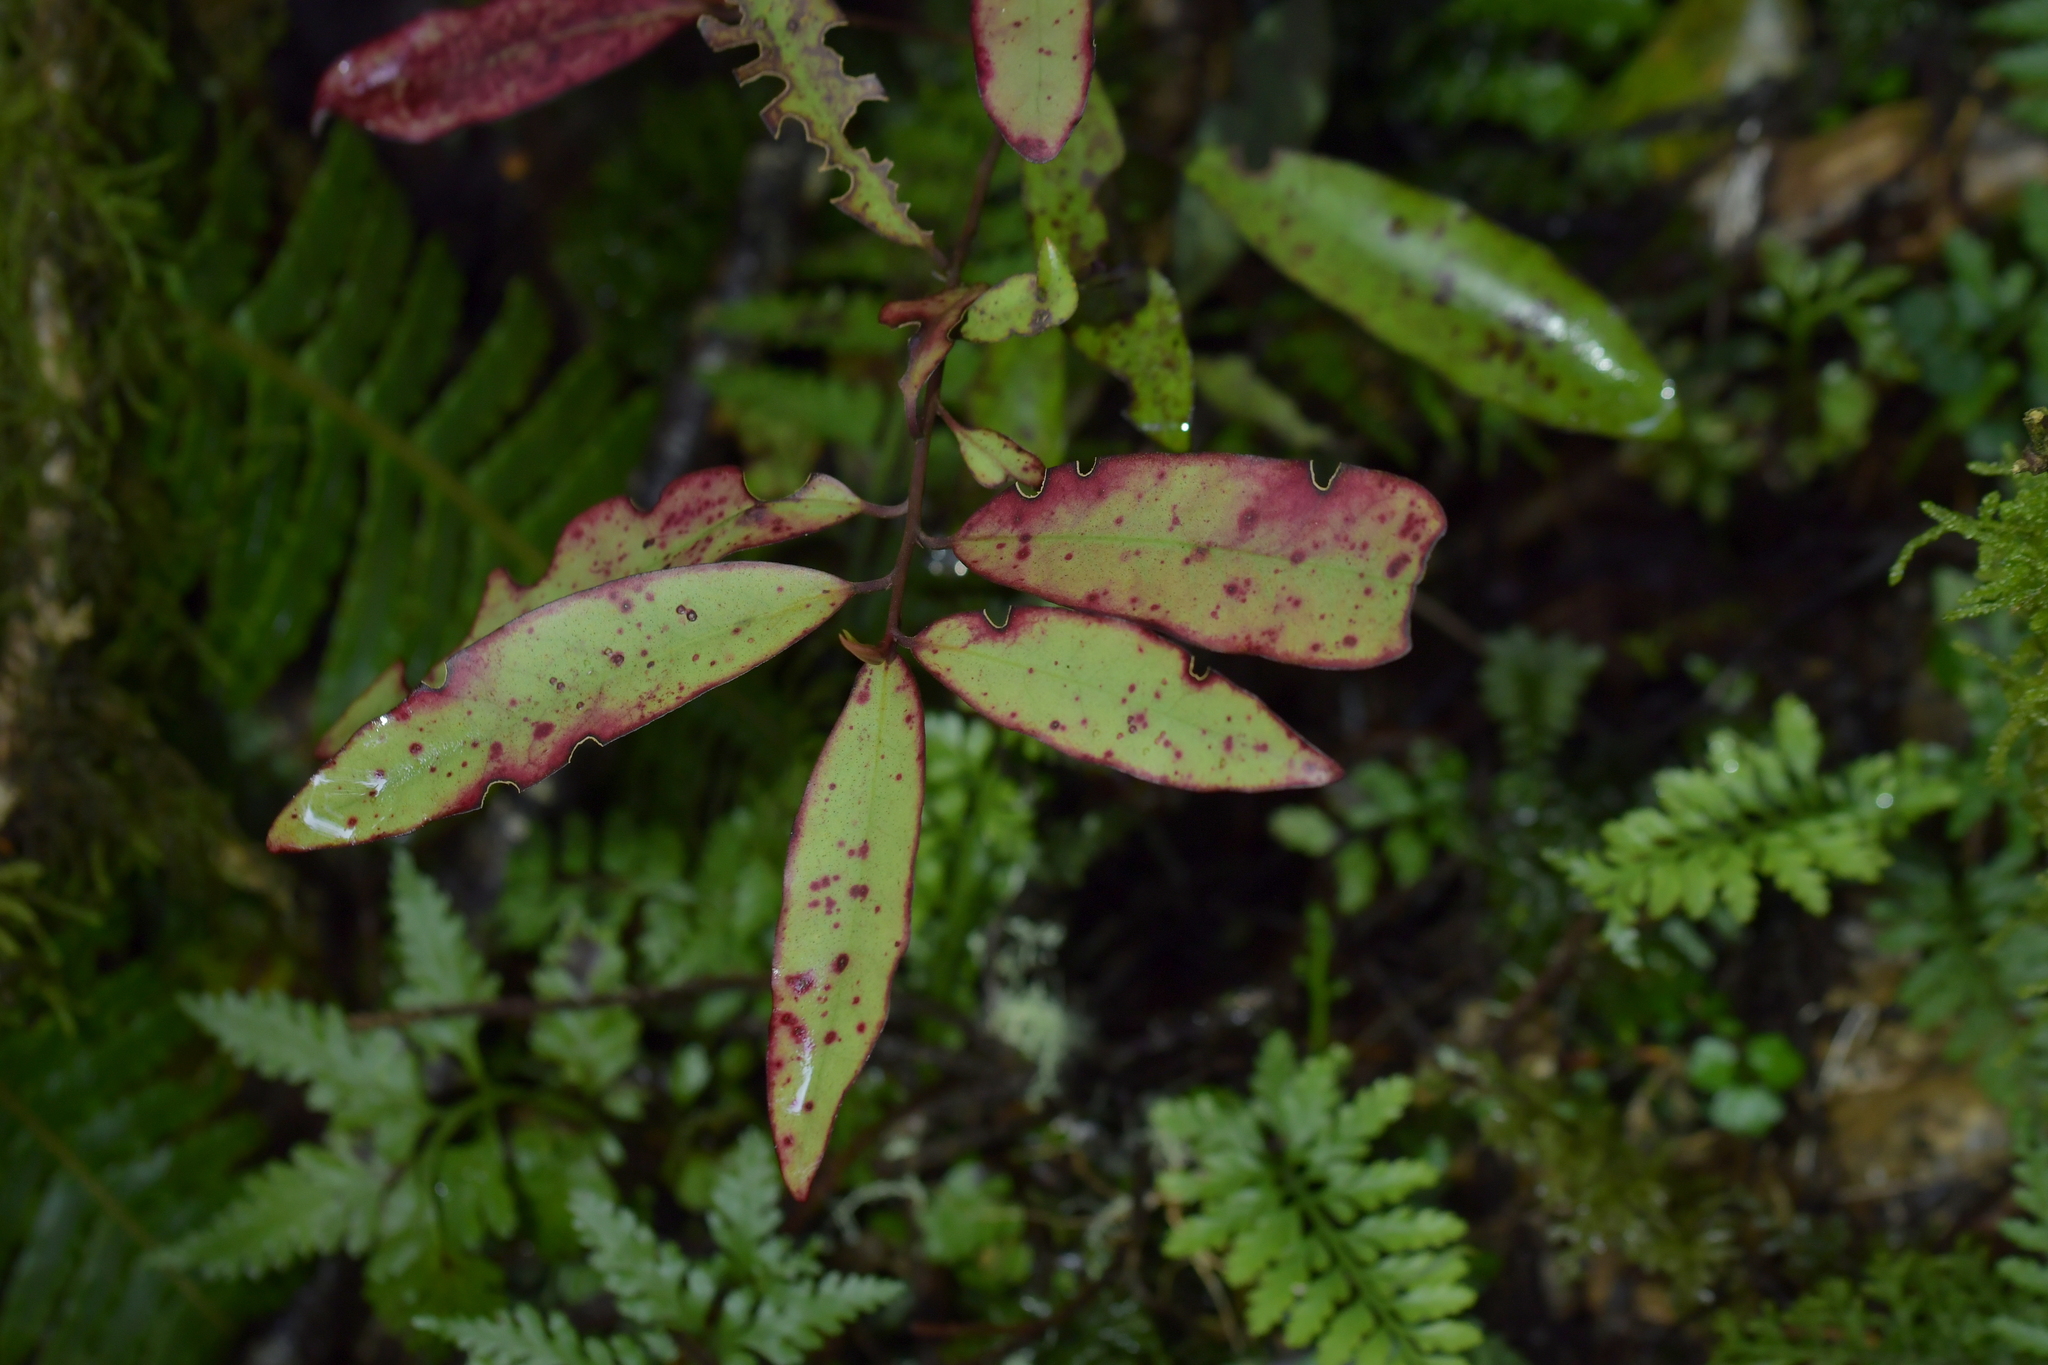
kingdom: Plantae
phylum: Tracheophyta
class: Magnoliopsida
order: Canellales
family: Winteraceae
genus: Pseudowintera
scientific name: Pseudowintera colorata
